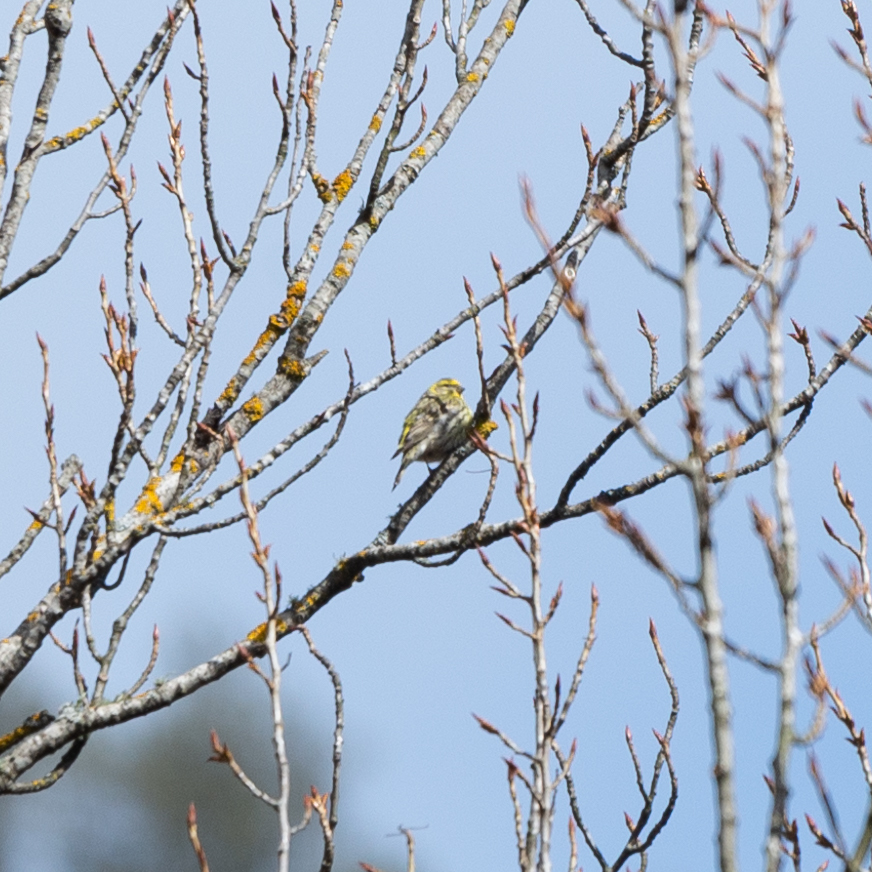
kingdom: Animalia
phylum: Chordata
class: Aves
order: Passeriformes
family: Fringillidae
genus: Serinus
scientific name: Serinus serinus
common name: European serin
